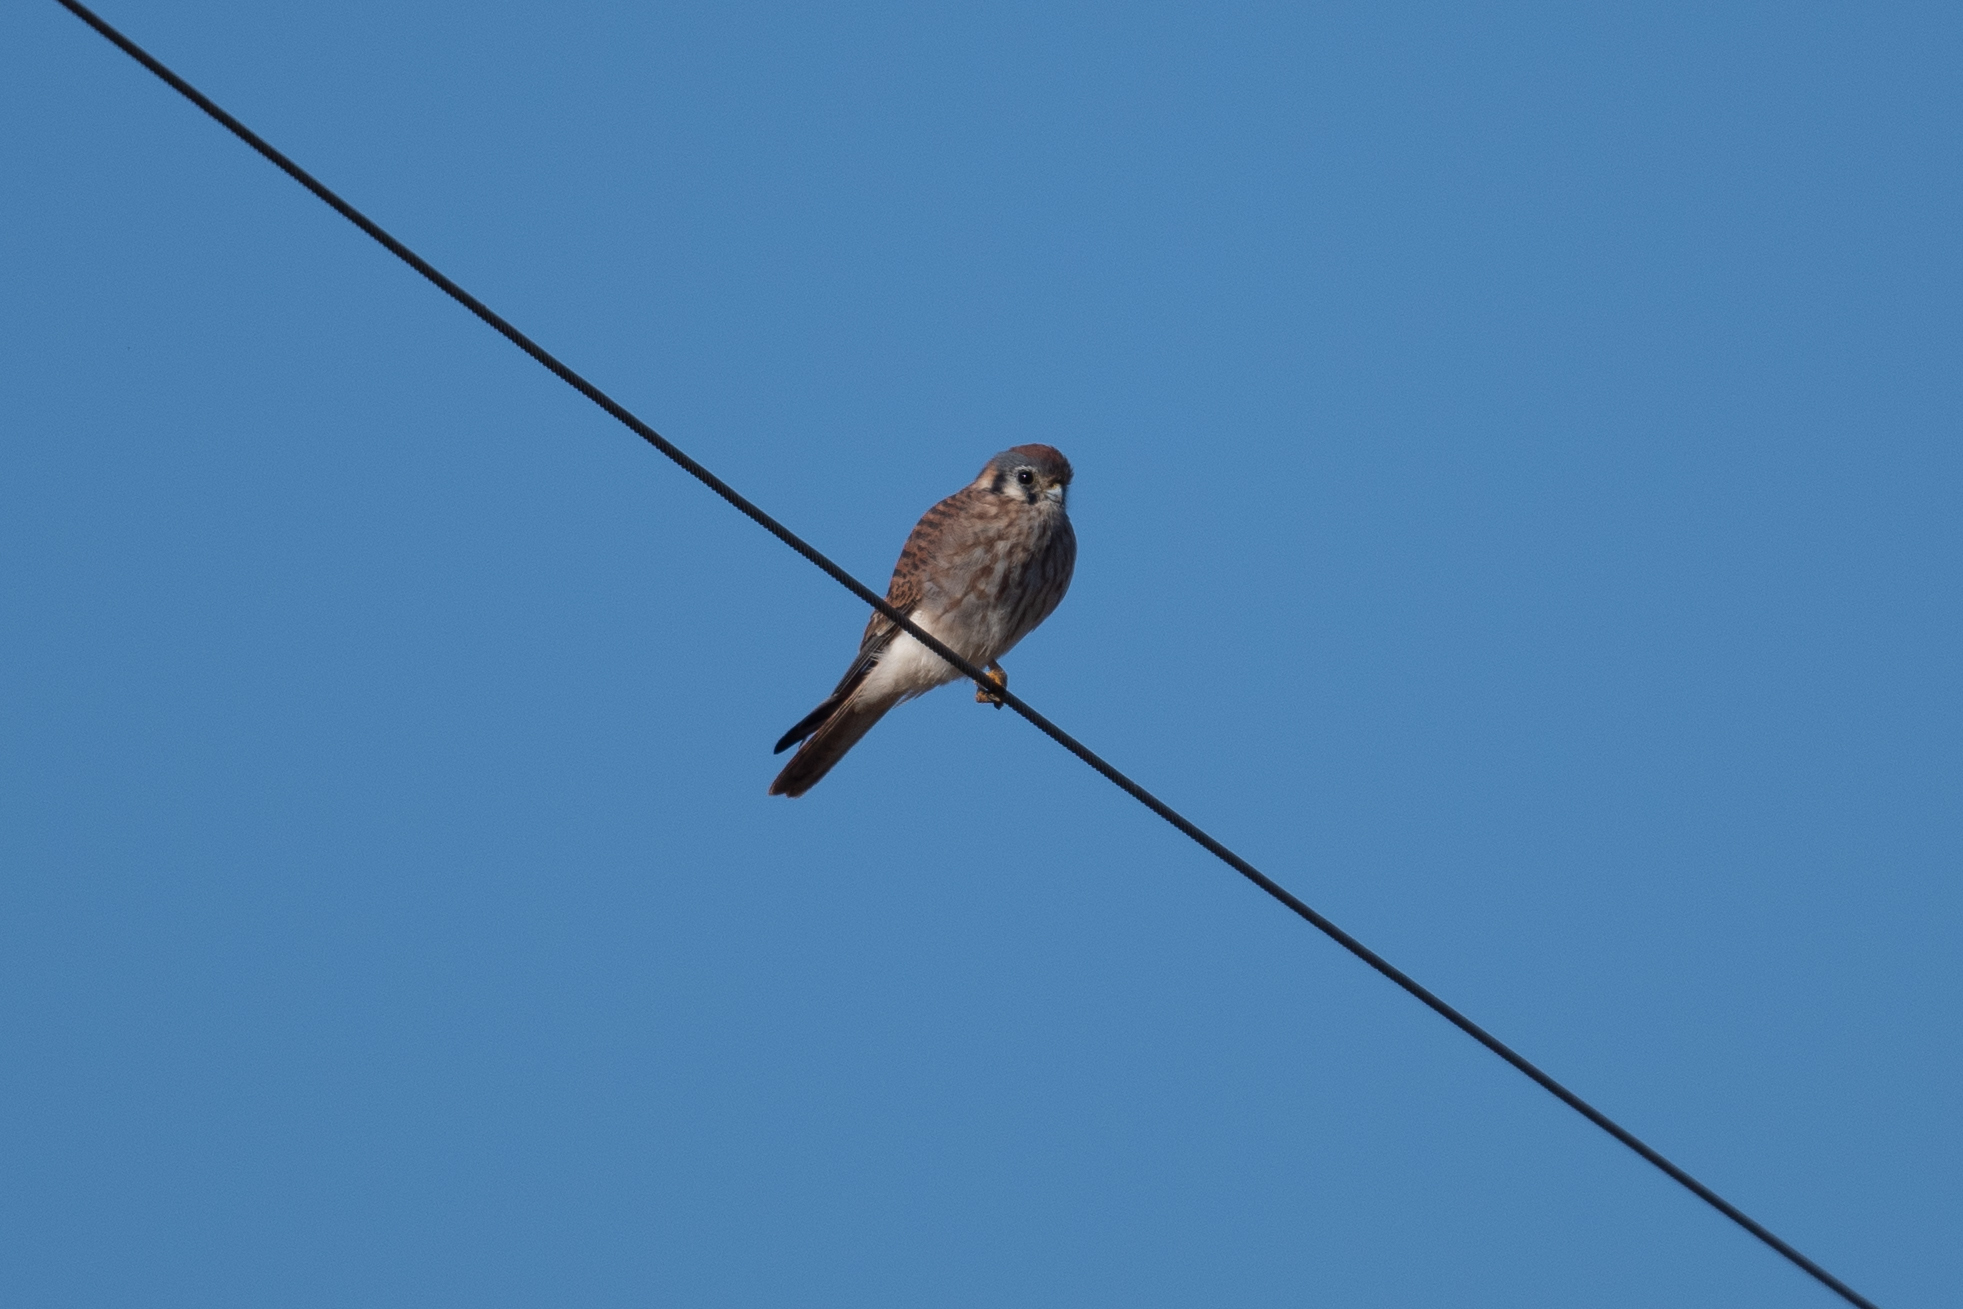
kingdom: Animalia
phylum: Chordata
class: Aves
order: Falconiformes
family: Falconidae
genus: Falco
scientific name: Falco sparverius
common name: American kestrel
